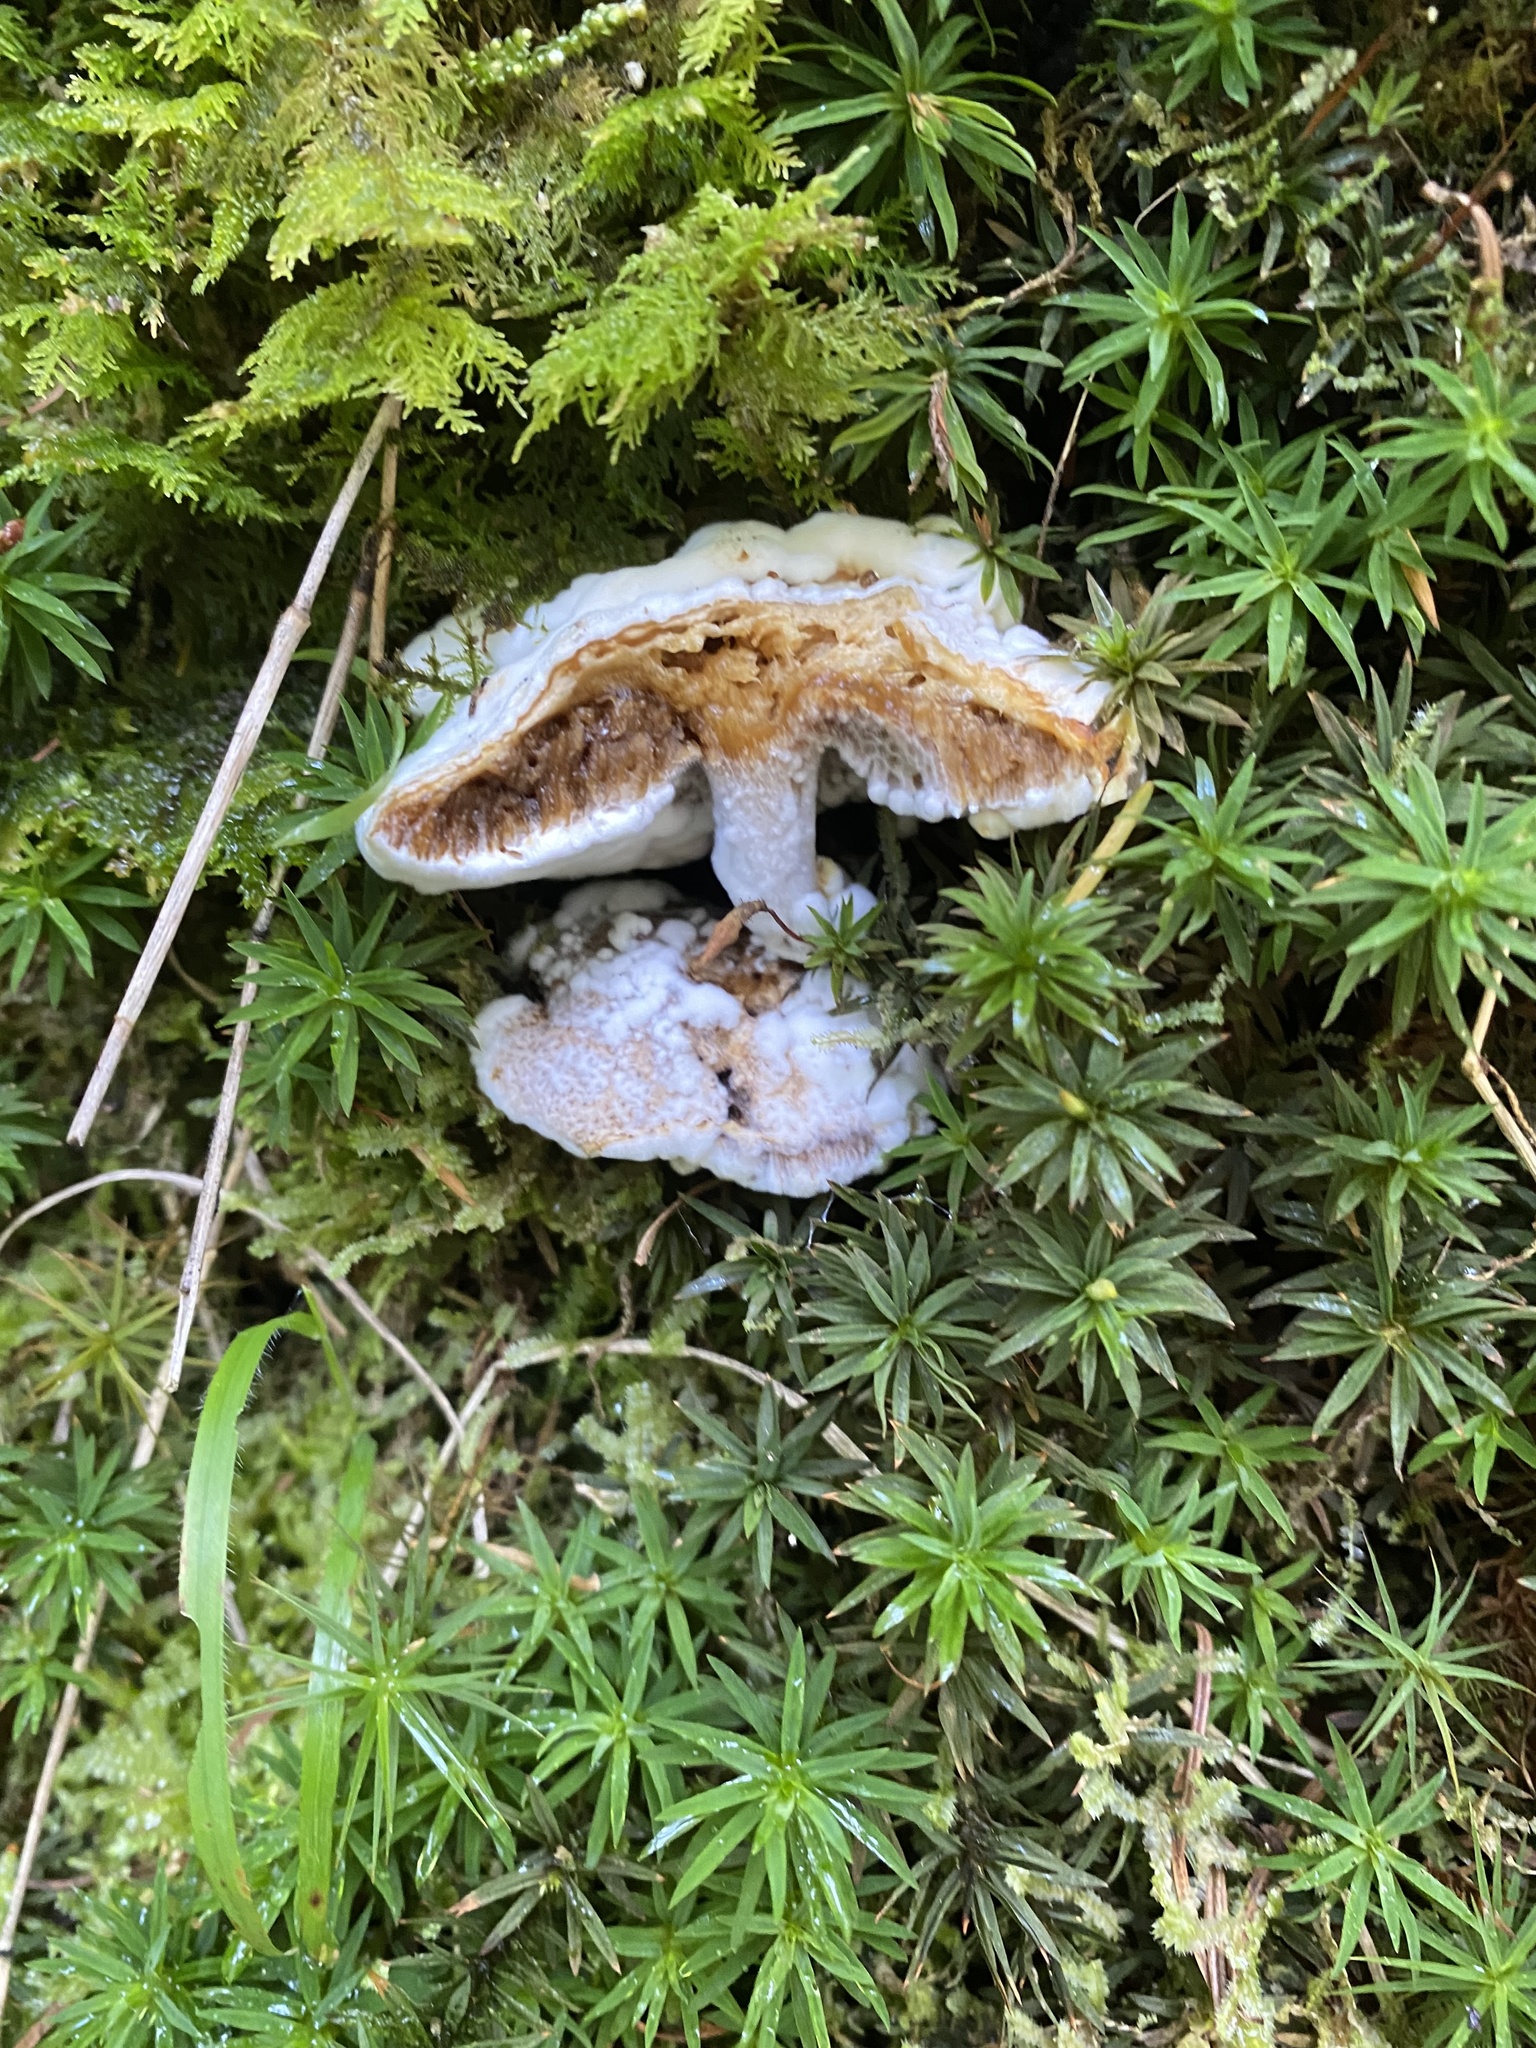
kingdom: Fungi
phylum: Ascomycota
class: Sordariomycetes
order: Hypocreales
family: Hypocreaceae
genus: Hypomyces
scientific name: Hypomyces chrysospermus
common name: Bolete mould
